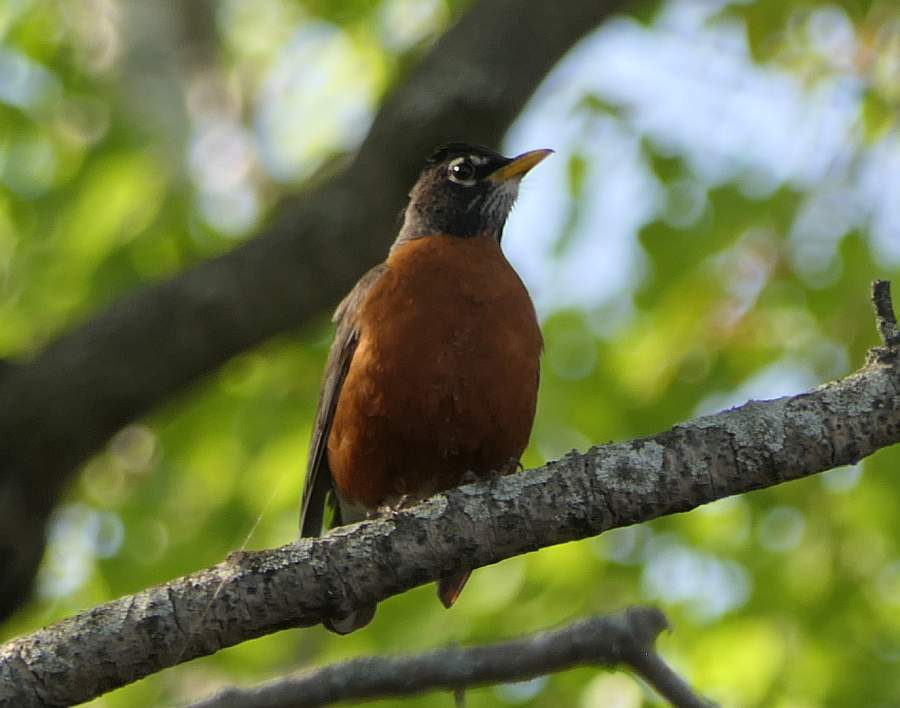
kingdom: Animalia
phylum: Chordata
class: Aves
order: Passeriformes
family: Turdidae
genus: Turdus
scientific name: Turdus migratorius
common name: American robin
